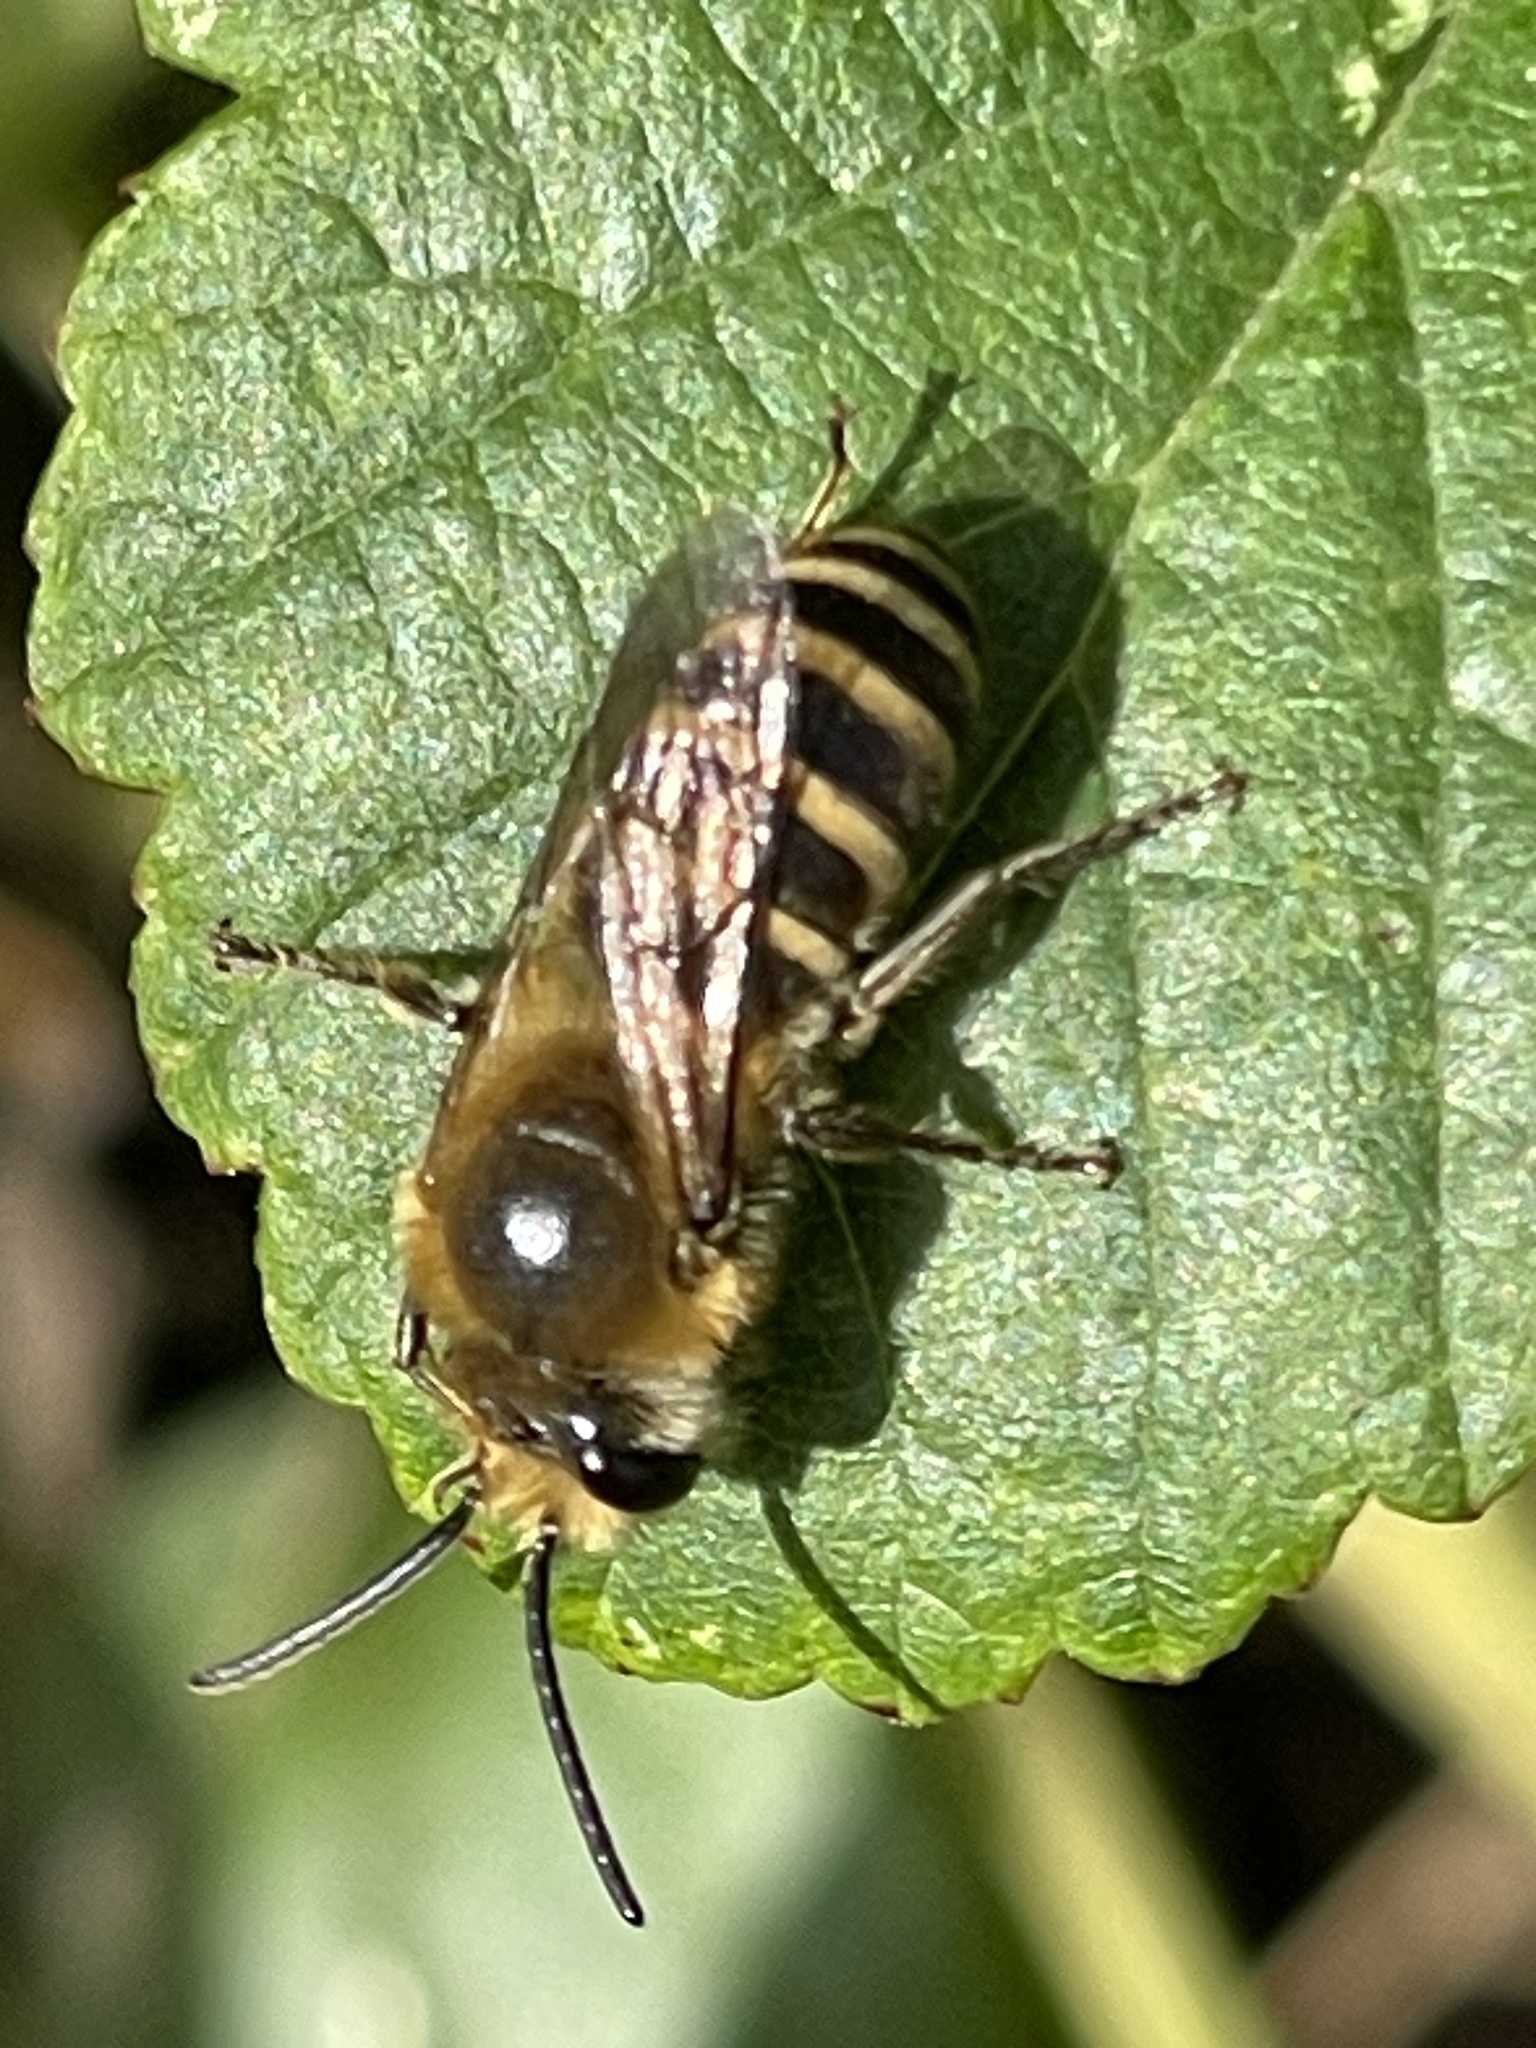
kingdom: Animalia
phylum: Arthropoda
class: Insecta
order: Hymenoptera
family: Colletidae
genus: Colletes
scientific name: Colletes hederae
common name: Ivy bee
